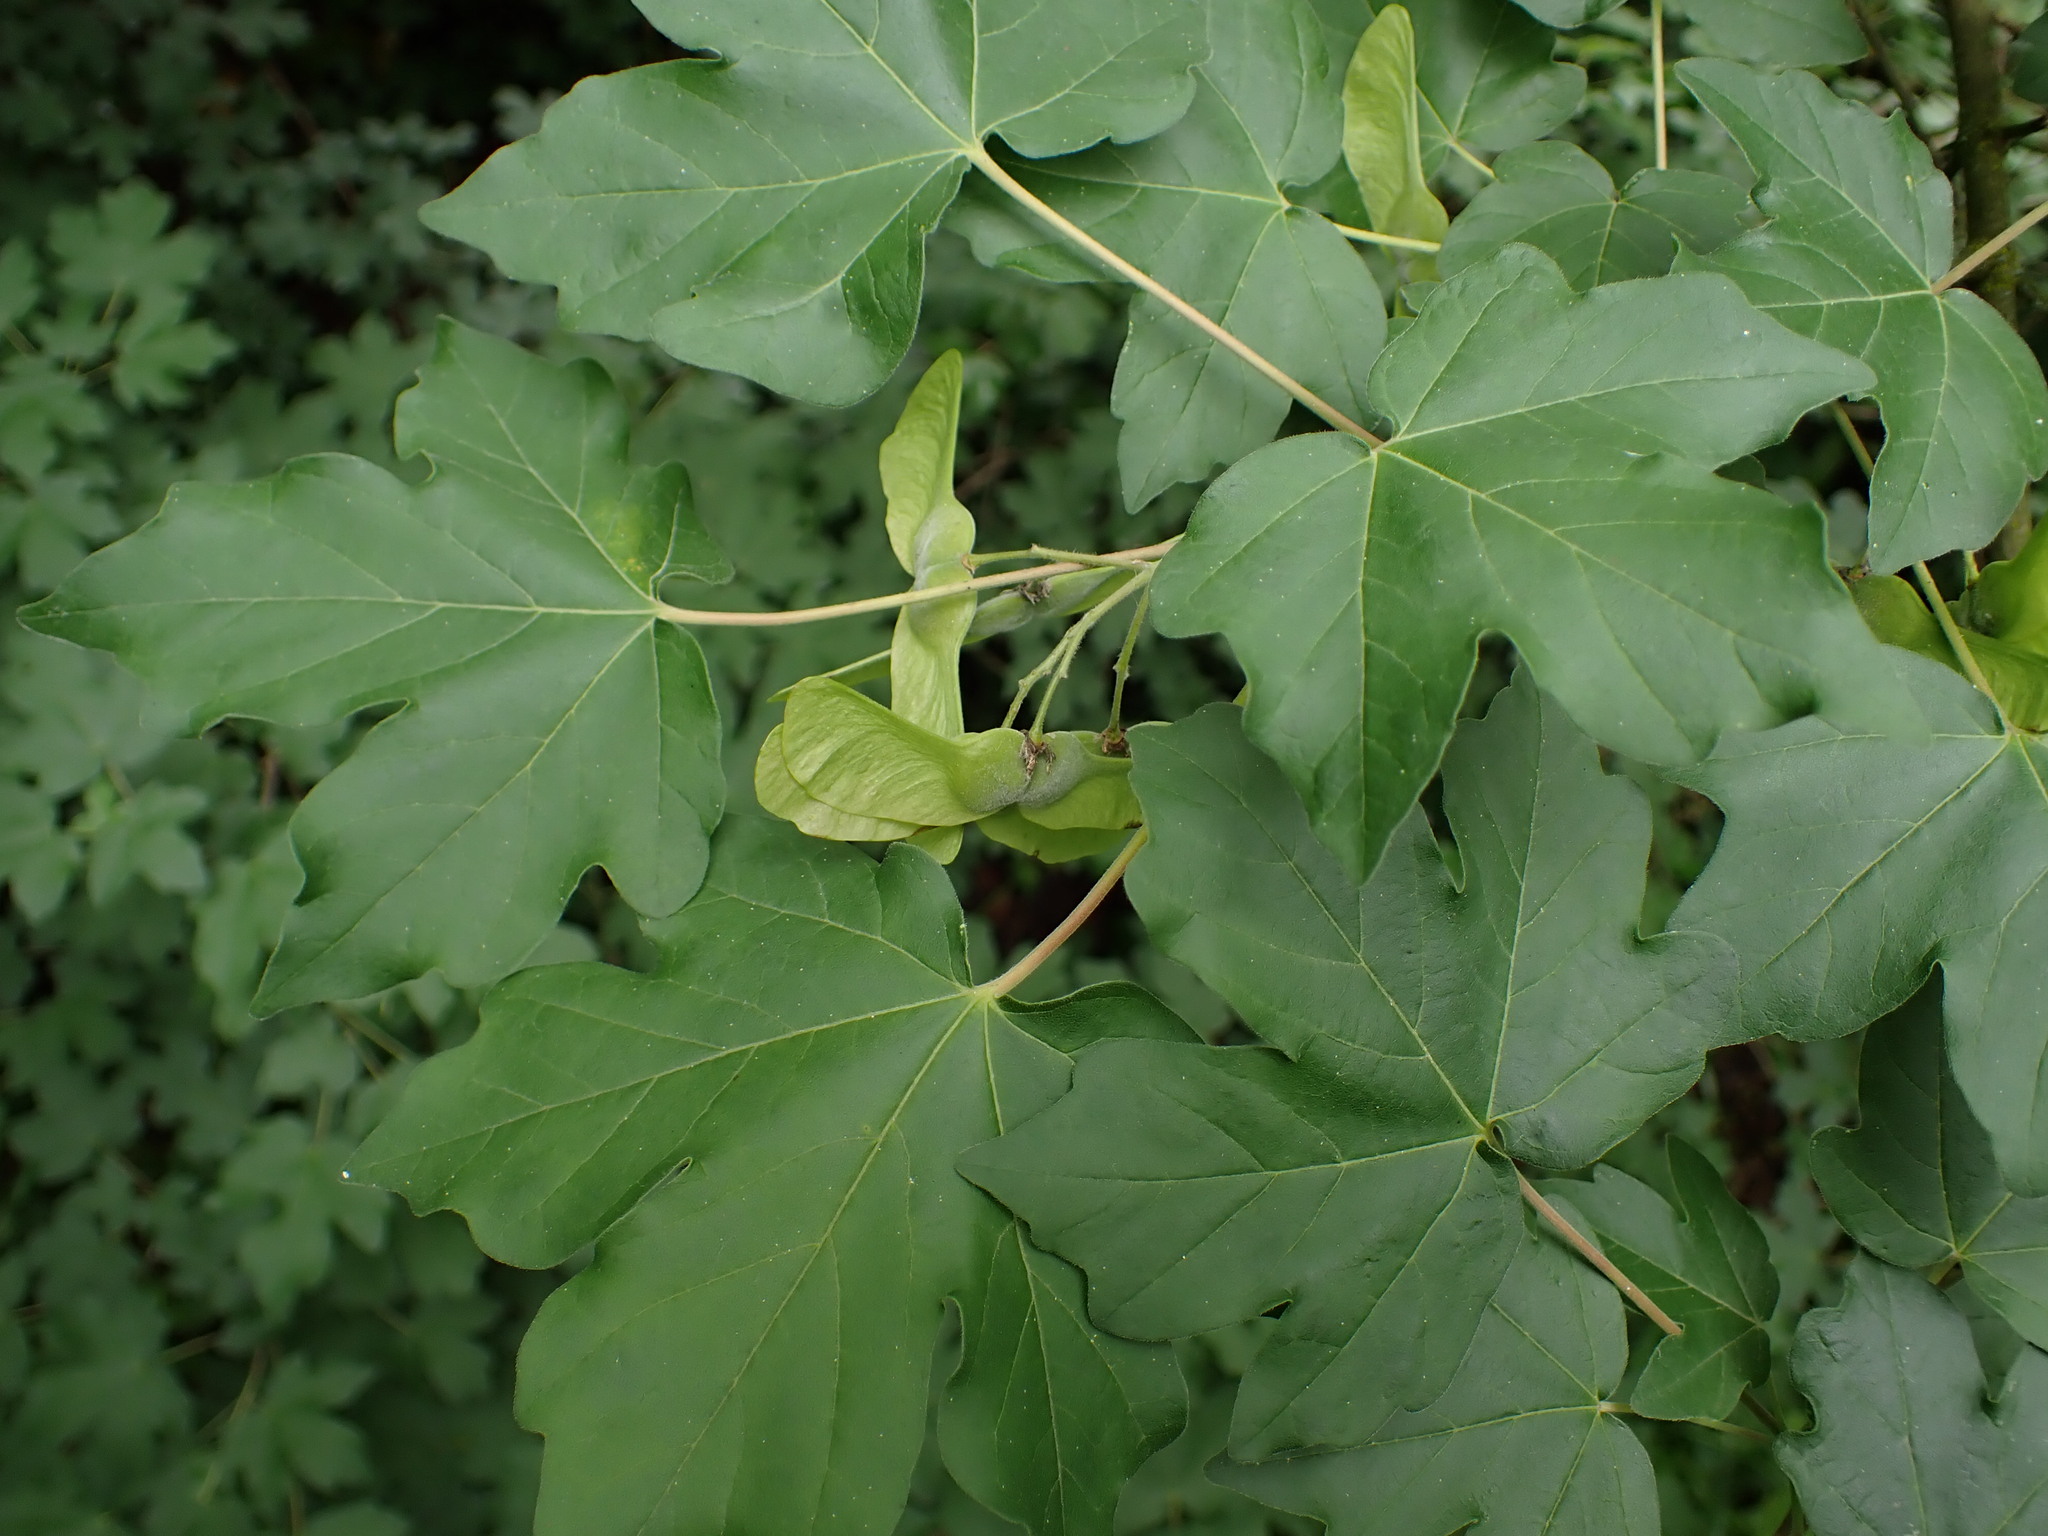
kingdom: Plantae
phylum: Tracheophyta
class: Magnoliopsida
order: Sapindales
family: Sapindaceae
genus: Acer
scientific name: Acer campestre
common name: Field maple
